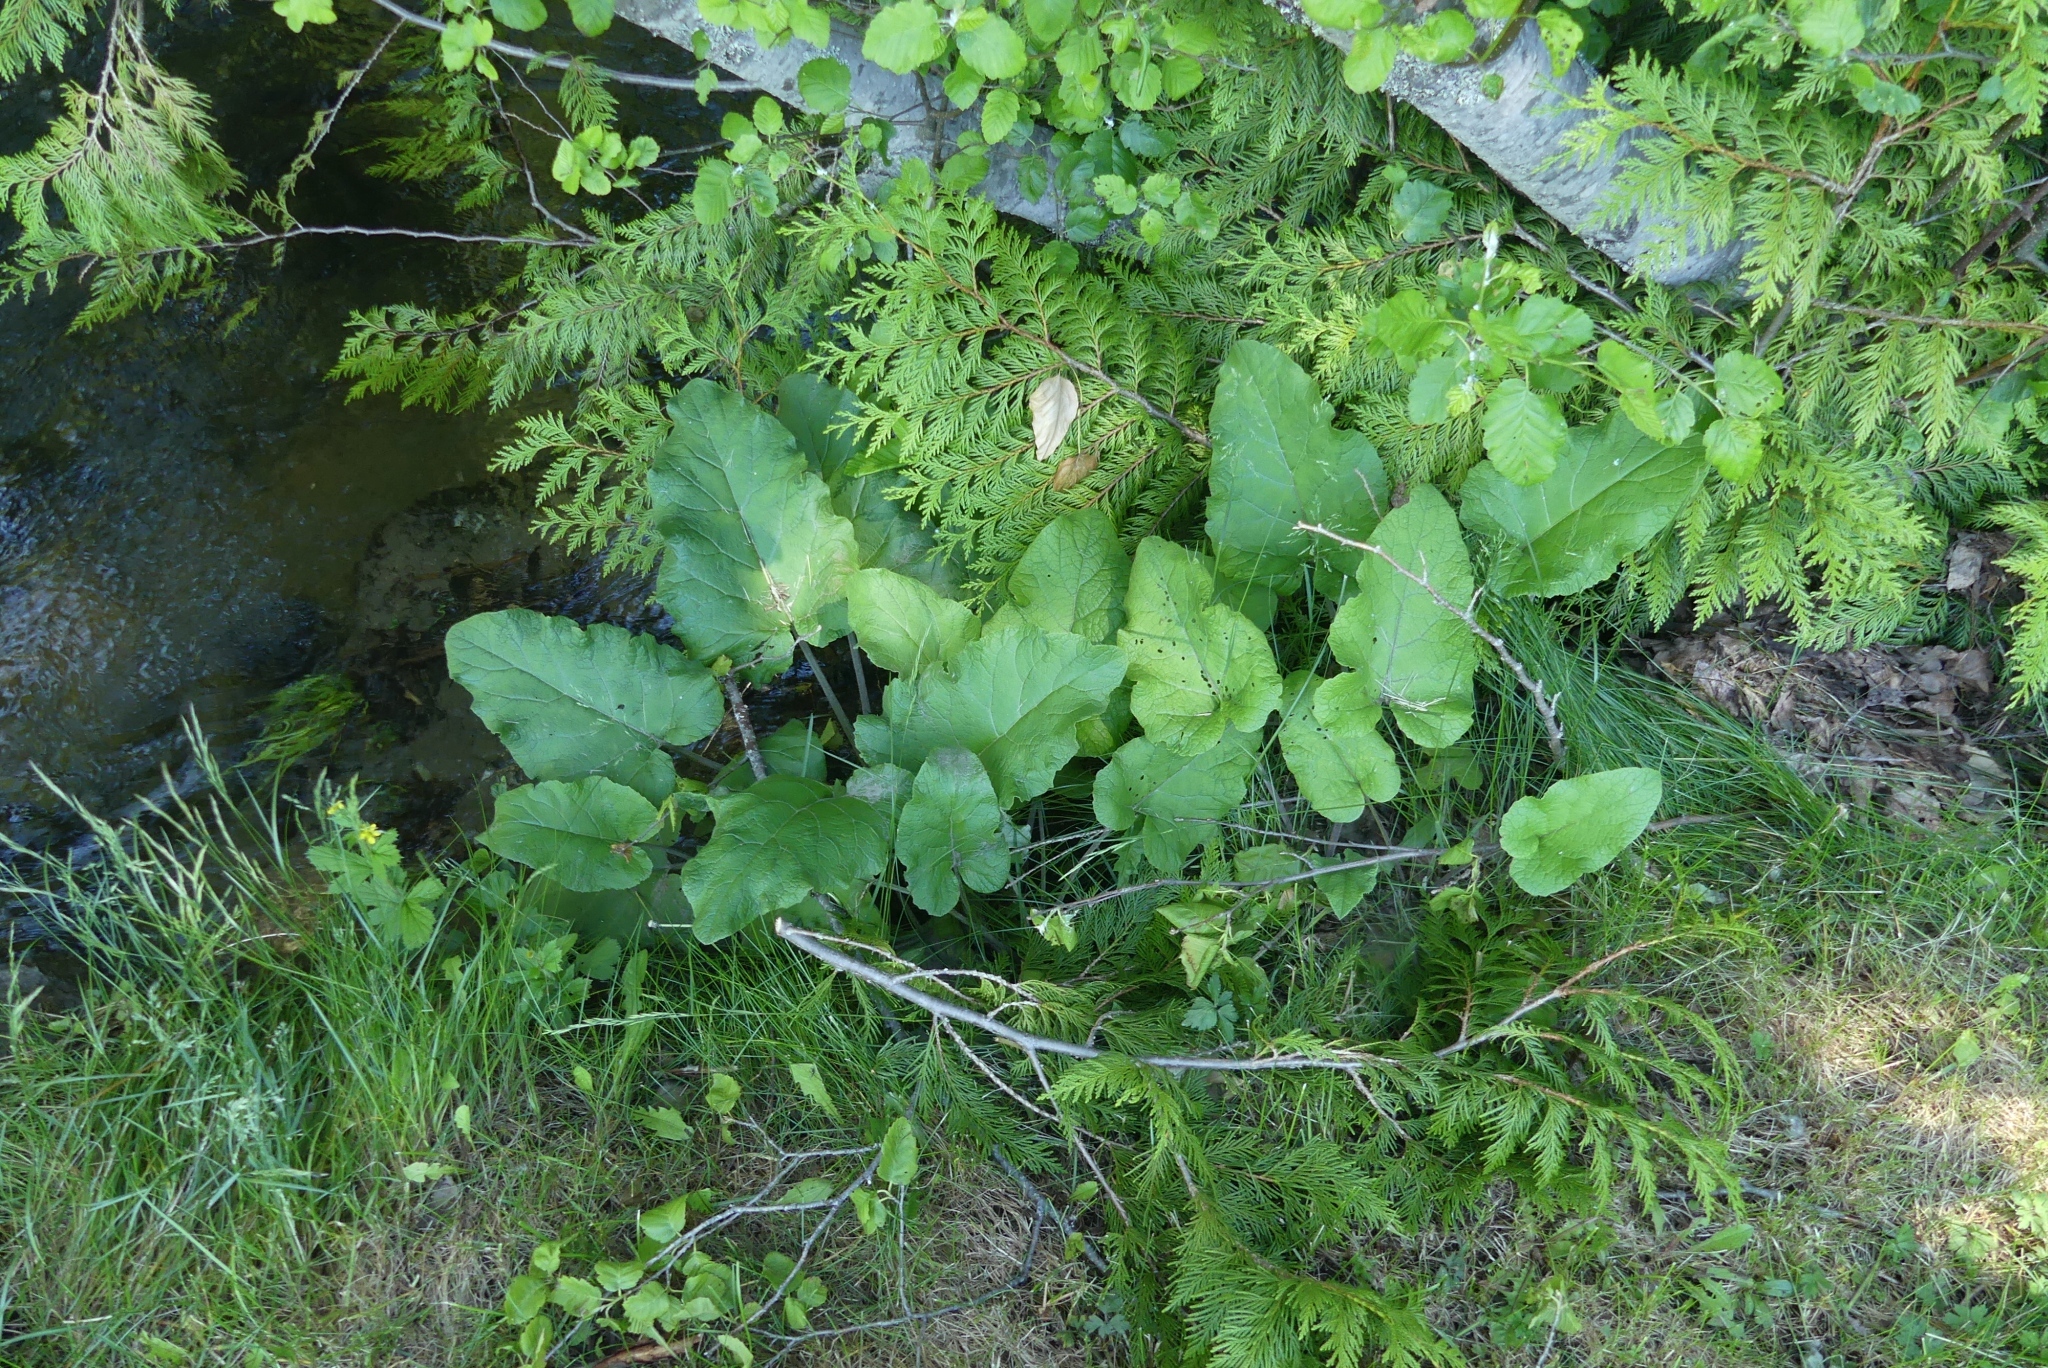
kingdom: Plantae
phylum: Tracheophyta
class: Magnoliopsida
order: Asterales
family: Asteraceae
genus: Arctium
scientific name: Arctium
